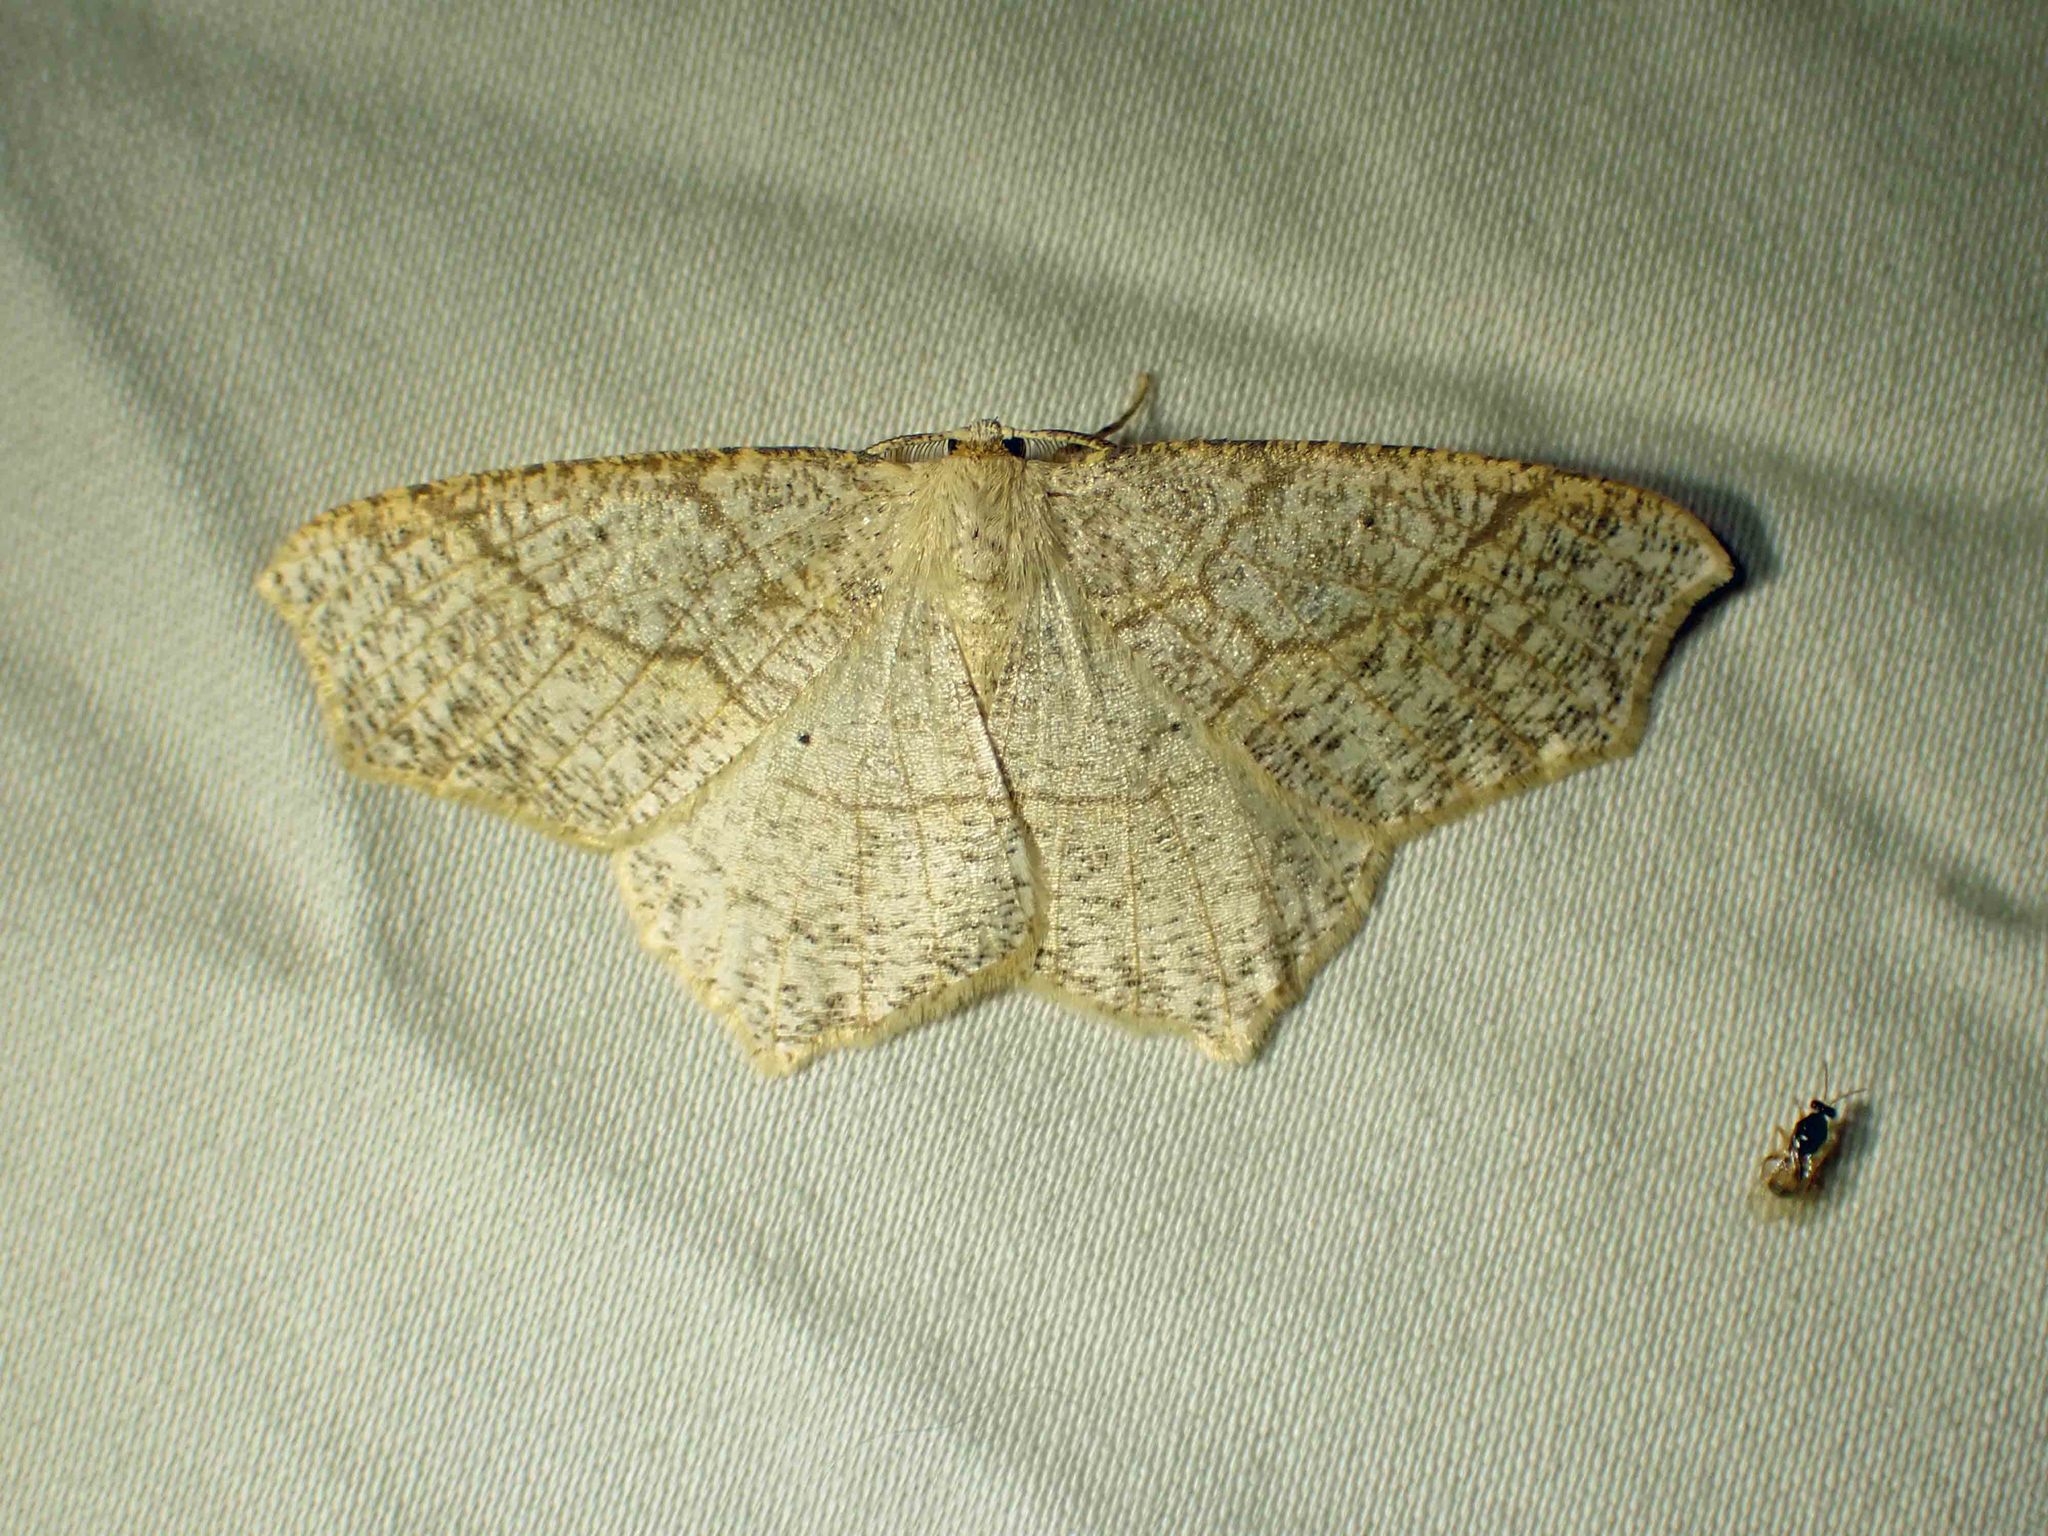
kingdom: Animalia
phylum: Arthropoda
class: Insecta
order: Lepidoptera
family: Geometridae
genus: Besma
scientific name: Besma quercivoraria
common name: Oak besma
